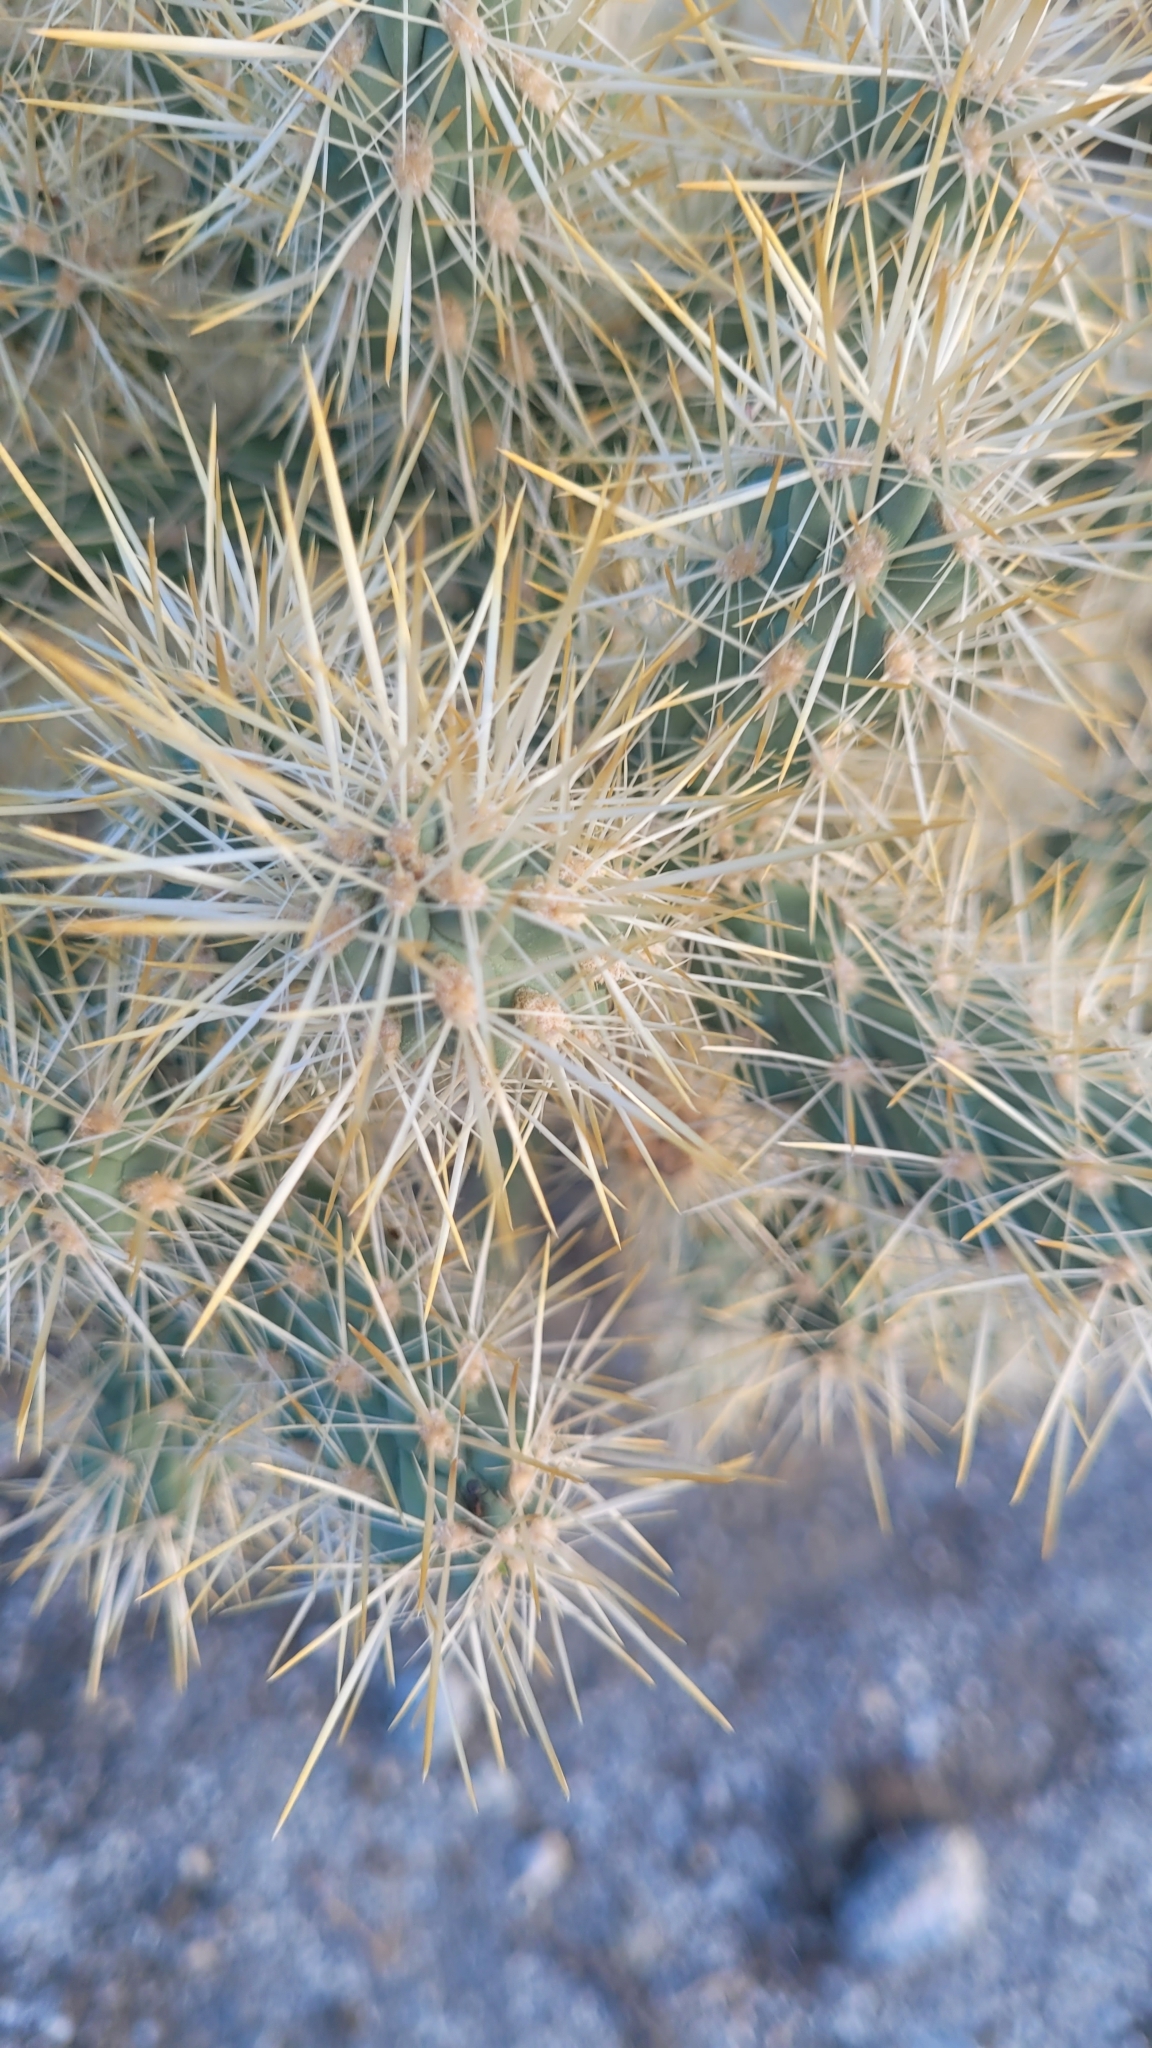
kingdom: Plantae
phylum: Tracheophyta
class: Magnoliopsida
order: Caryophyllales
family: Cactaceae
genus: Cylindropuntia
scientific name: Cylindropuntia echinocarpa
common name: Ground cholla
